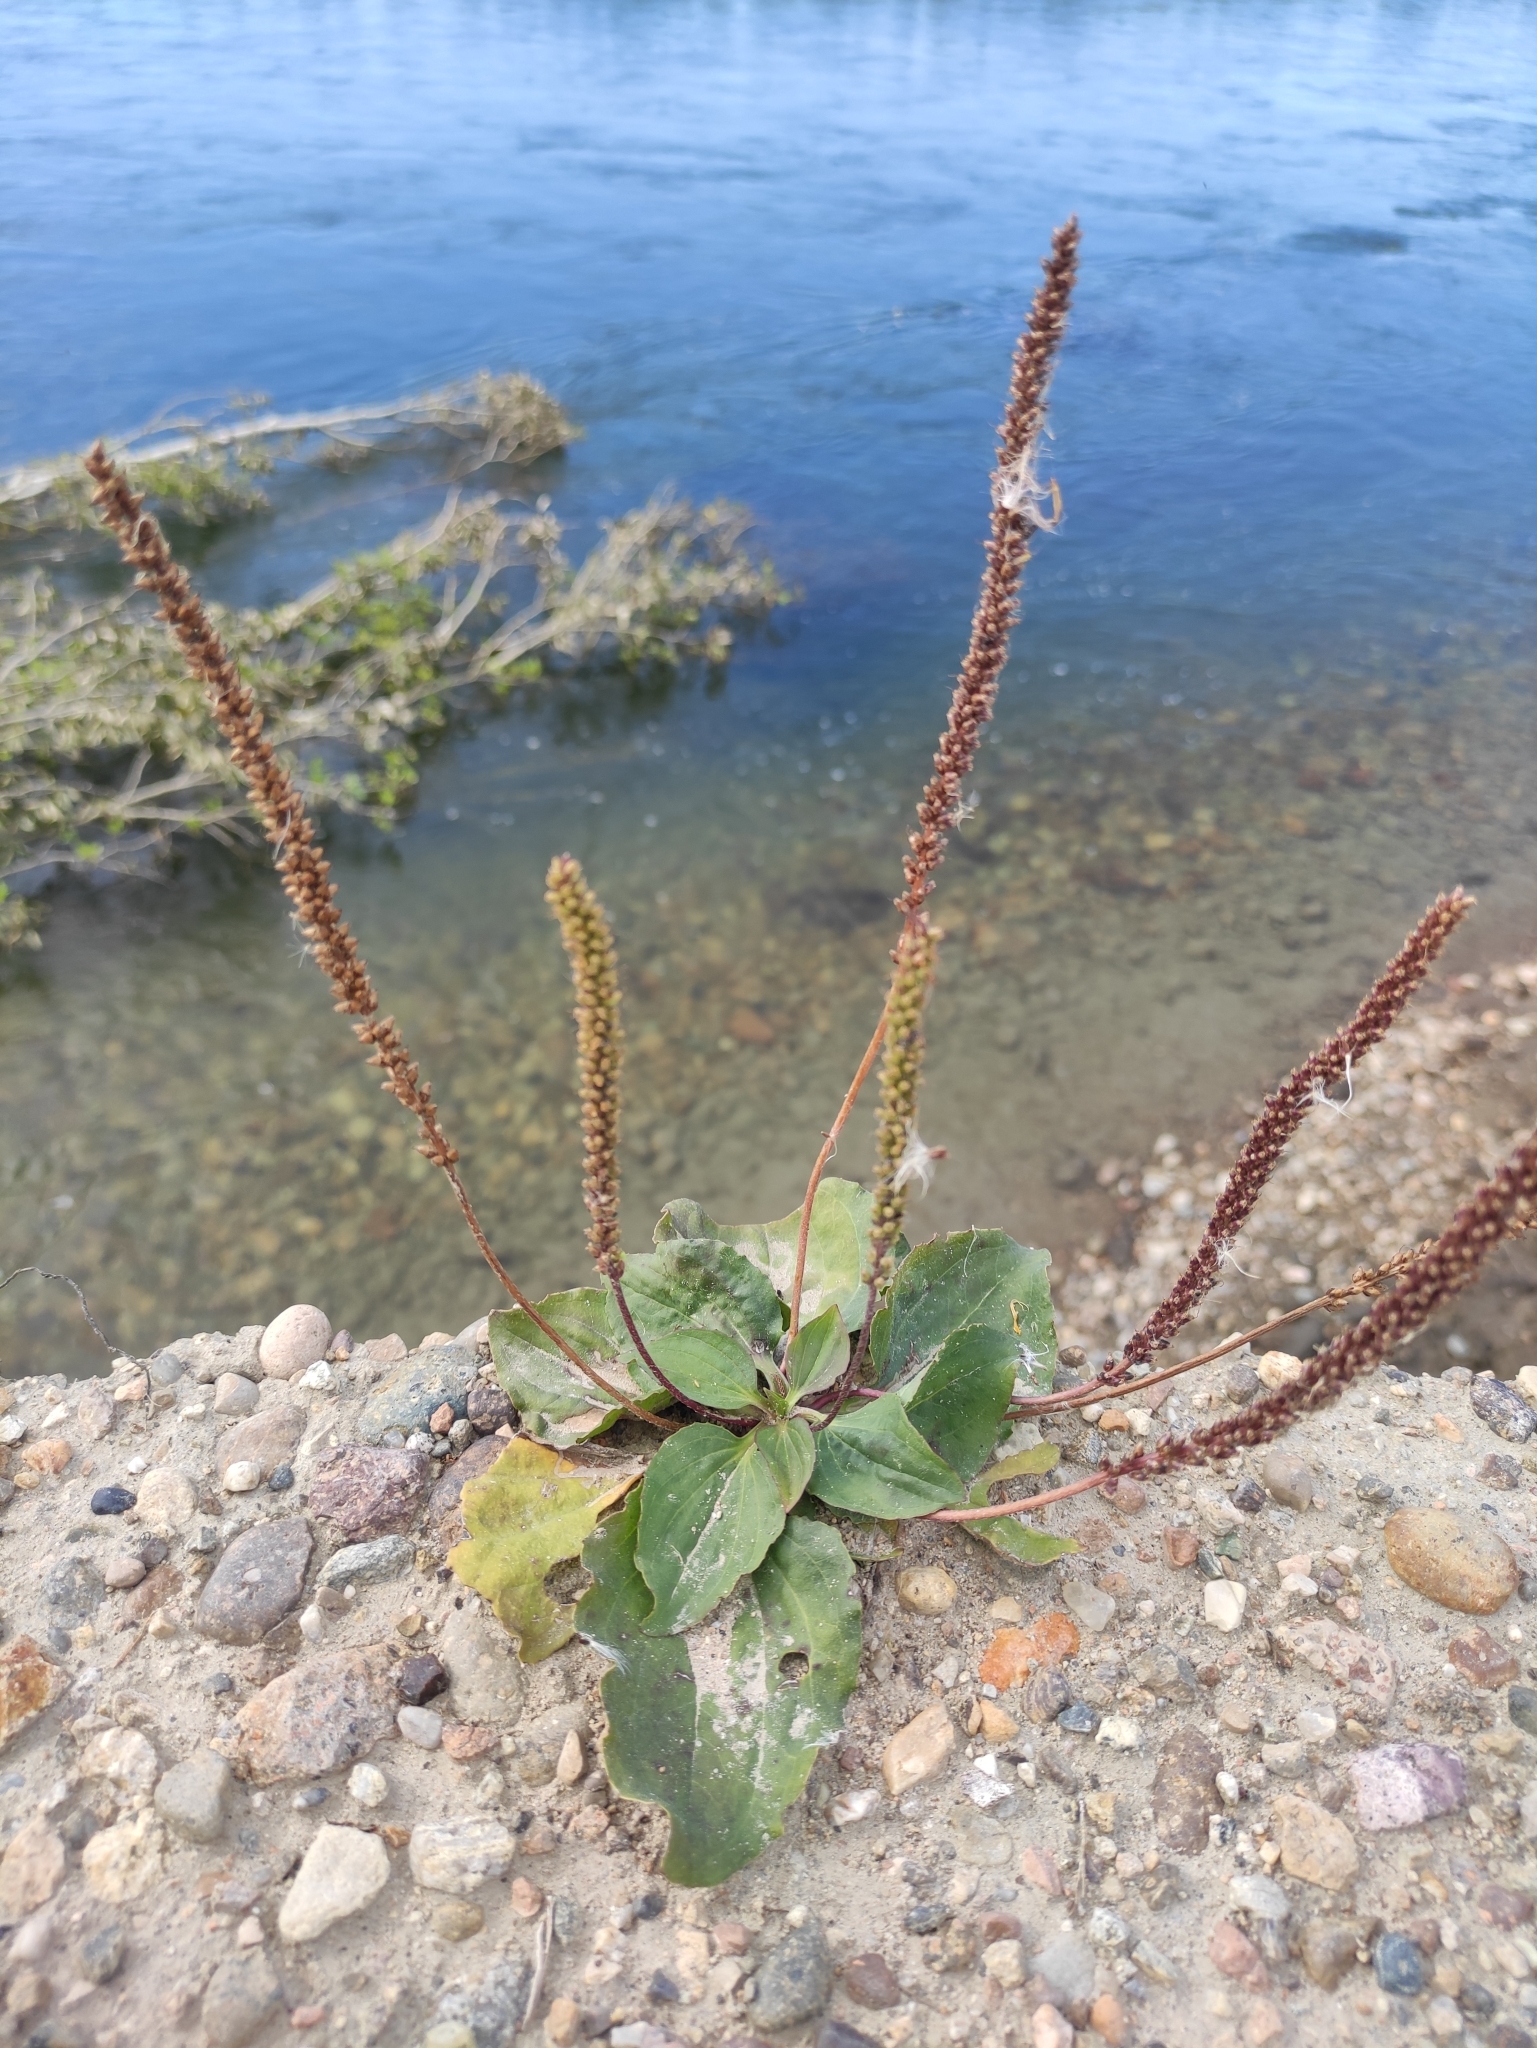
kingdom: Plantae
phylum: Tracheophyta
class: Magnoliopsida
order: Lamiales
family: Plantaginaceae
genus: Plantago
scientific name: Plantago major
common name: Common plantain
